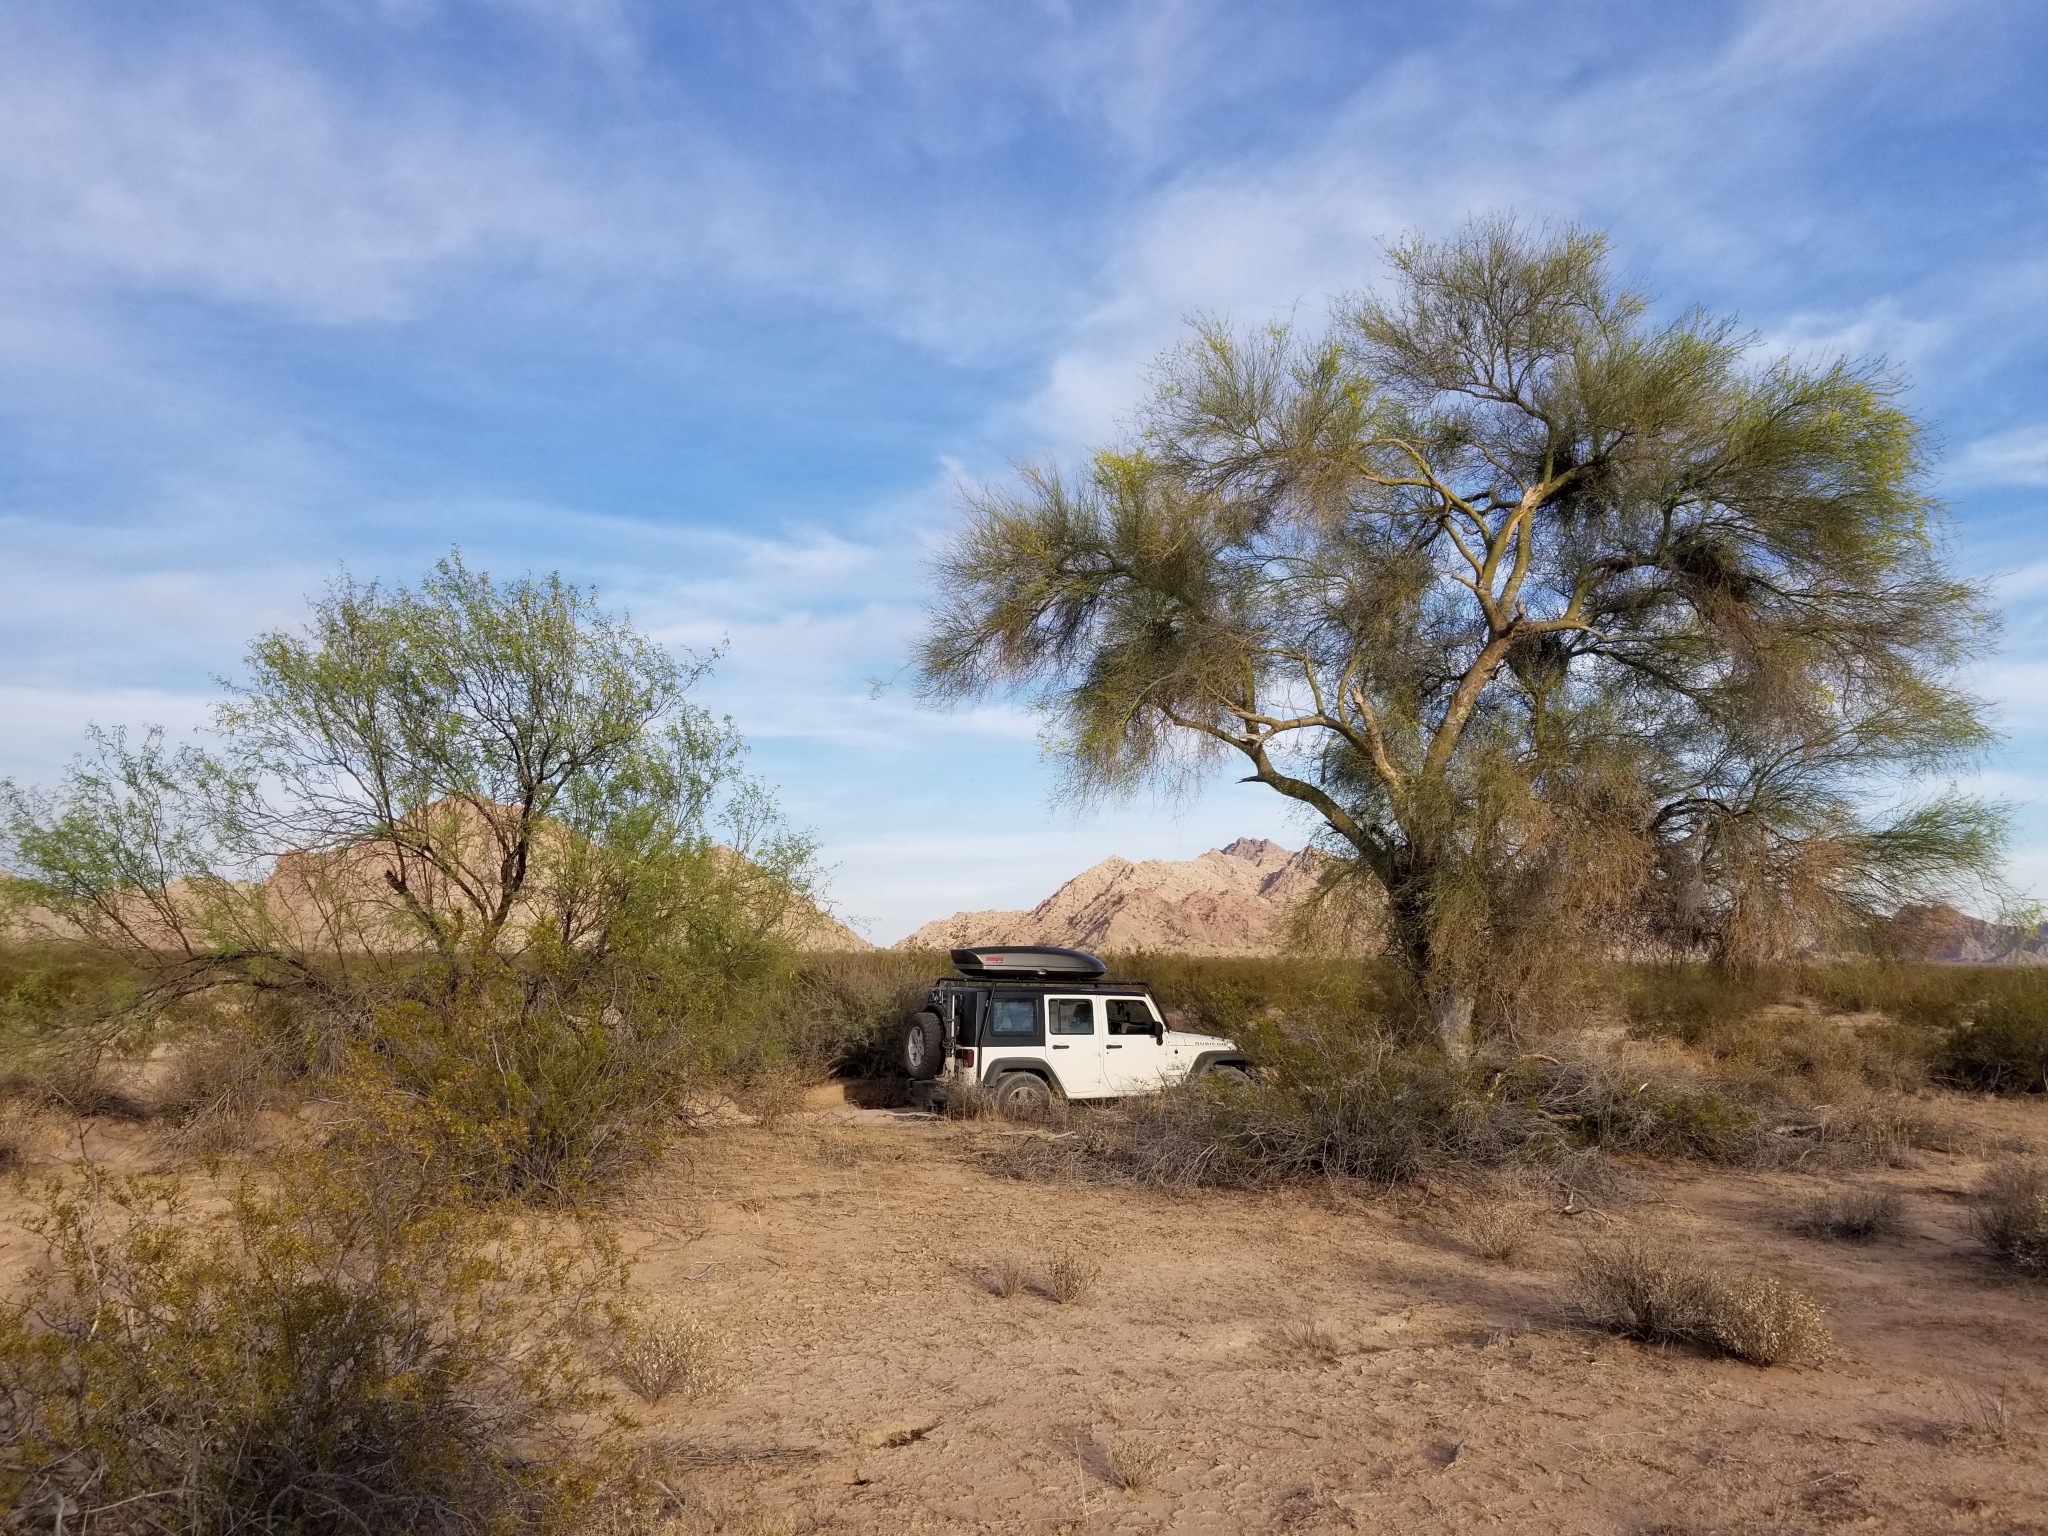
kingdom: Plantae
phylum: Tracheophyta
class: Magnoliopsida
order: Fabales
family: Fabaceae
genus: Prosopis
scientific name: Prosopis velutina
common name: Velvet mesquite
